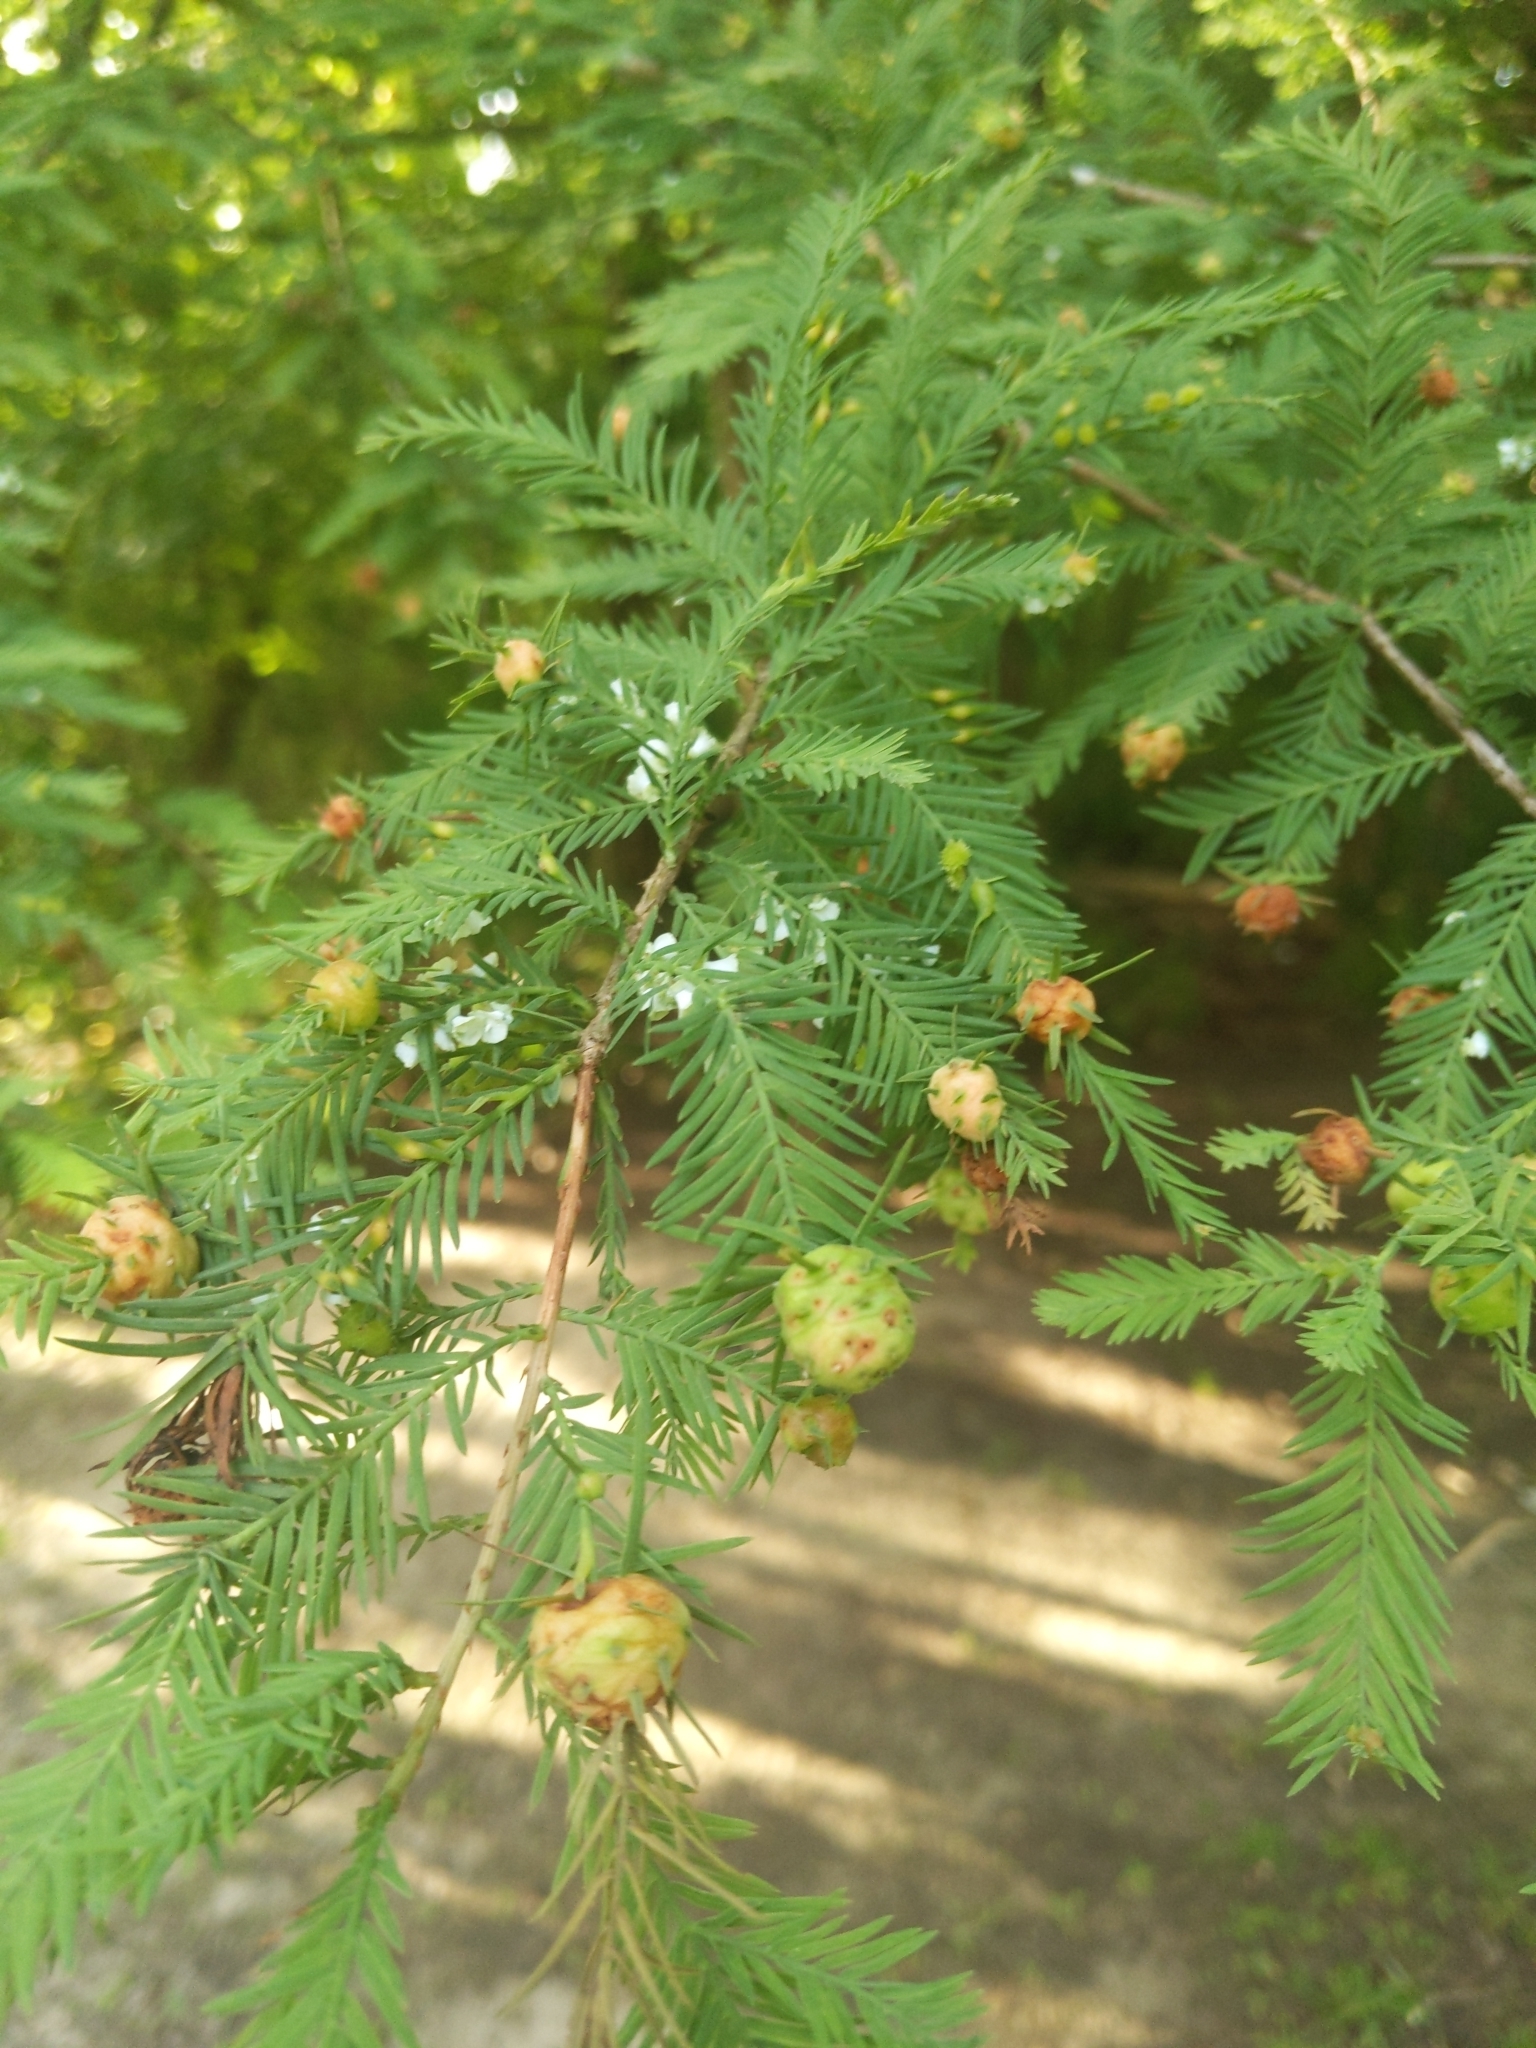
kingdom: Plantae
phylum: Tracheophyta
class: Pinopsida
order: Pinales
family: Cupressaceae
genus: Taxodium
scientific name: Taxodium distichum
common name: Bald cypress
